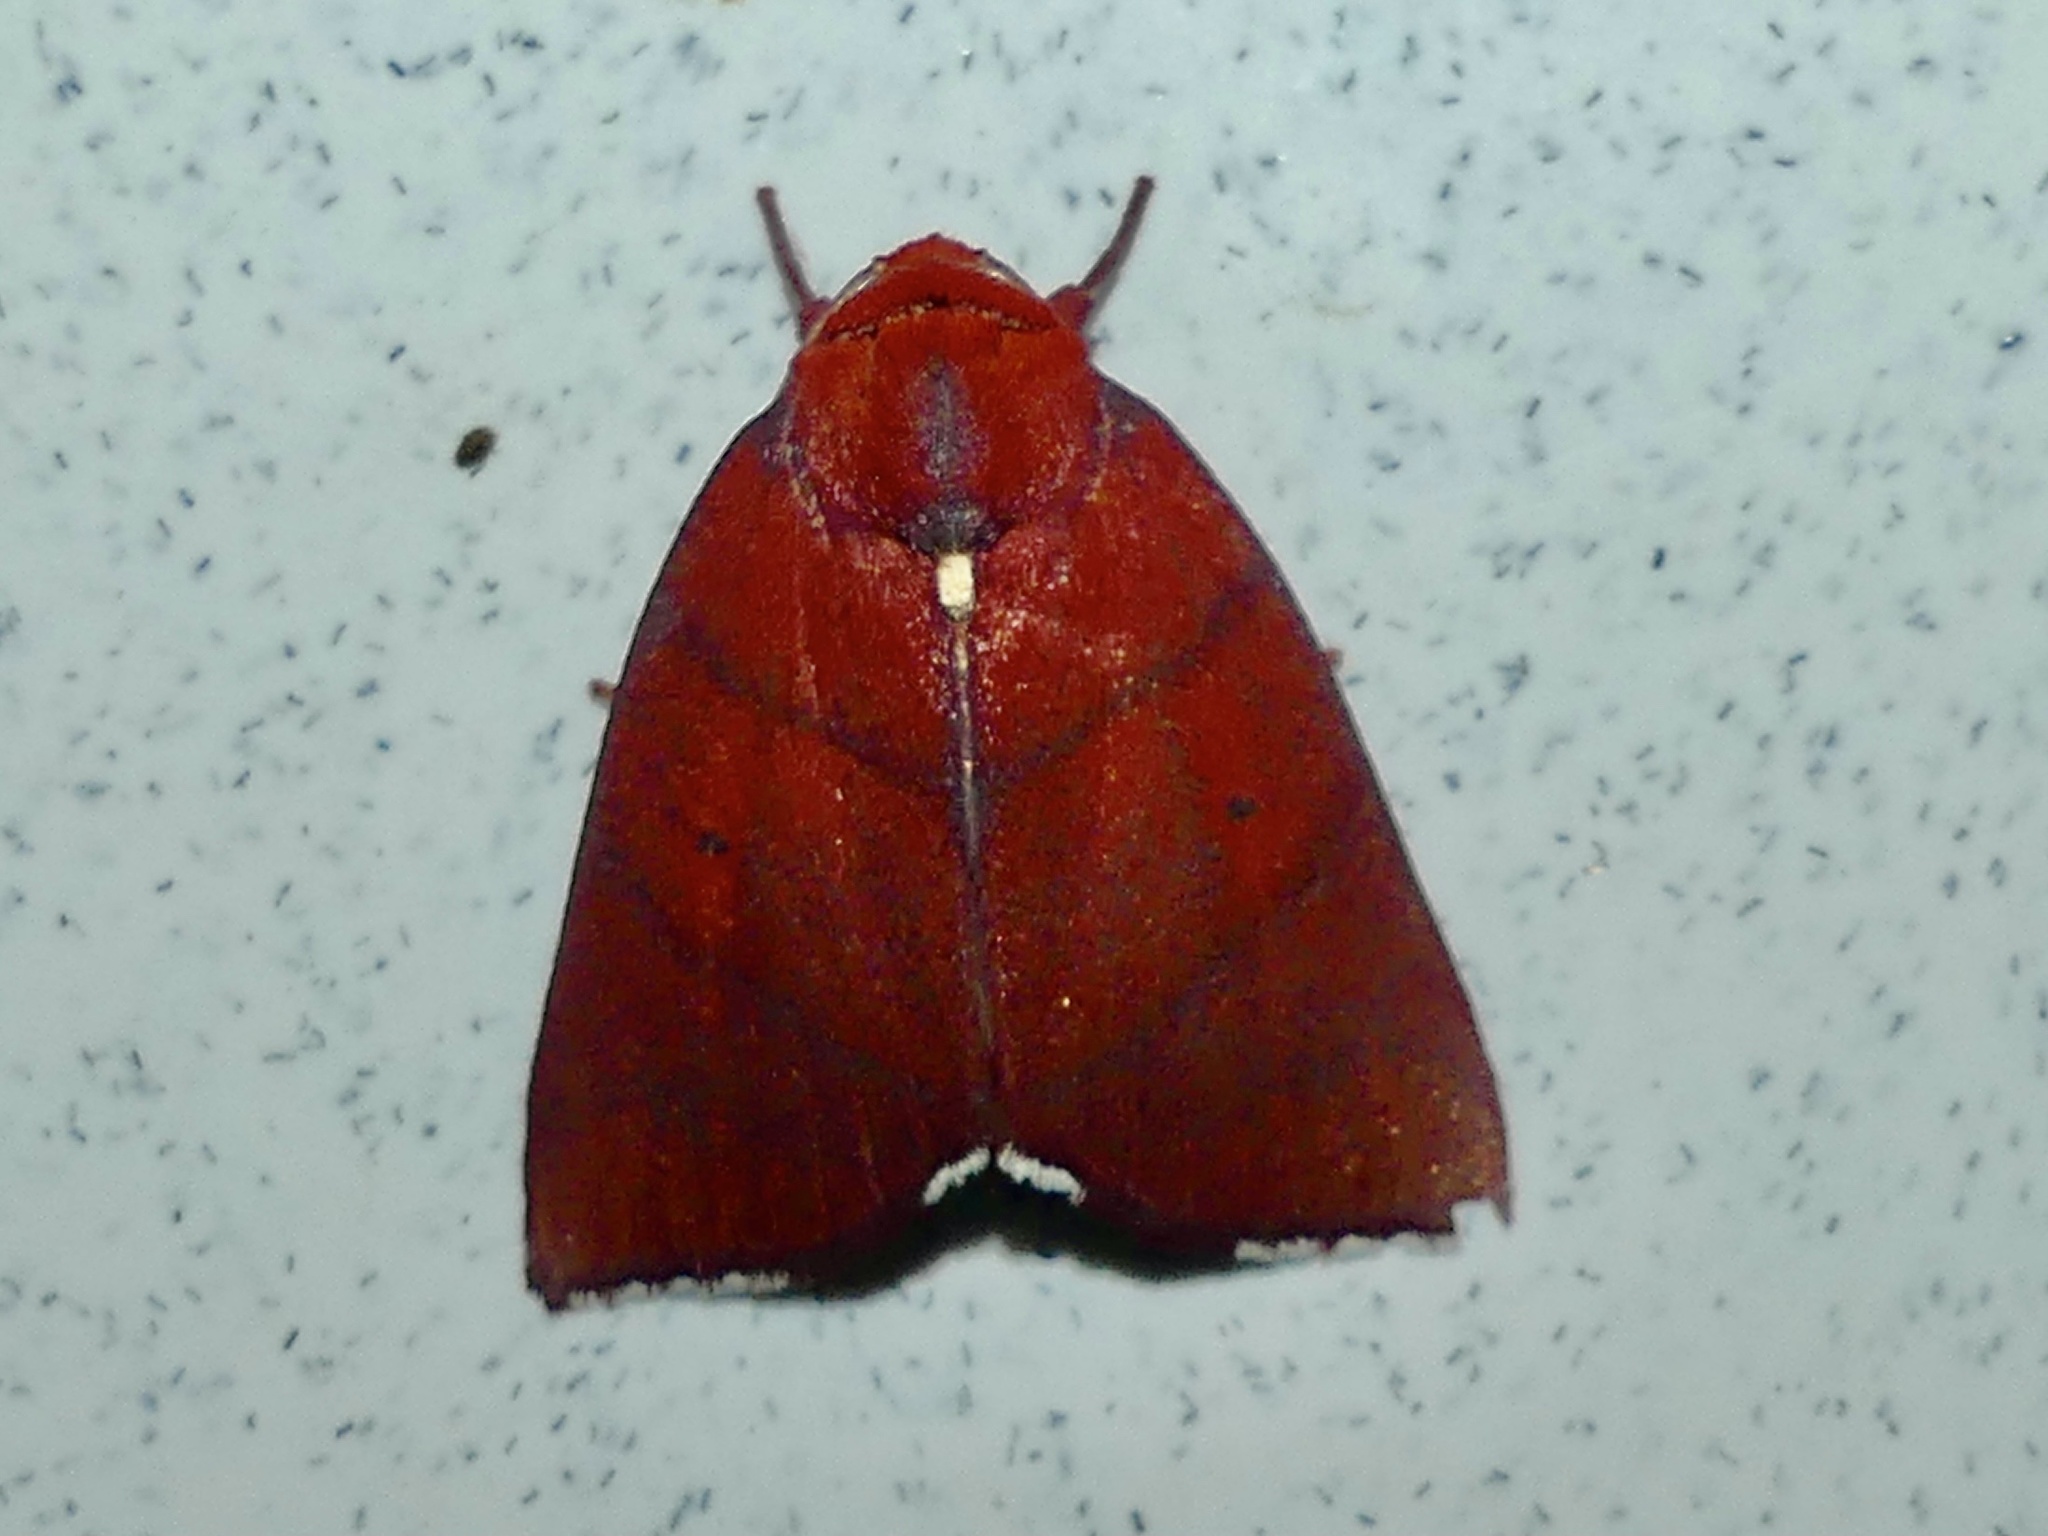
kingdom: Animalia
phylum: Arthropoda
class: Insecta
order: Lepidoptera
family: Nolidae
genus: Xenochroa
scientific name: Xenochroa purpureolineata
